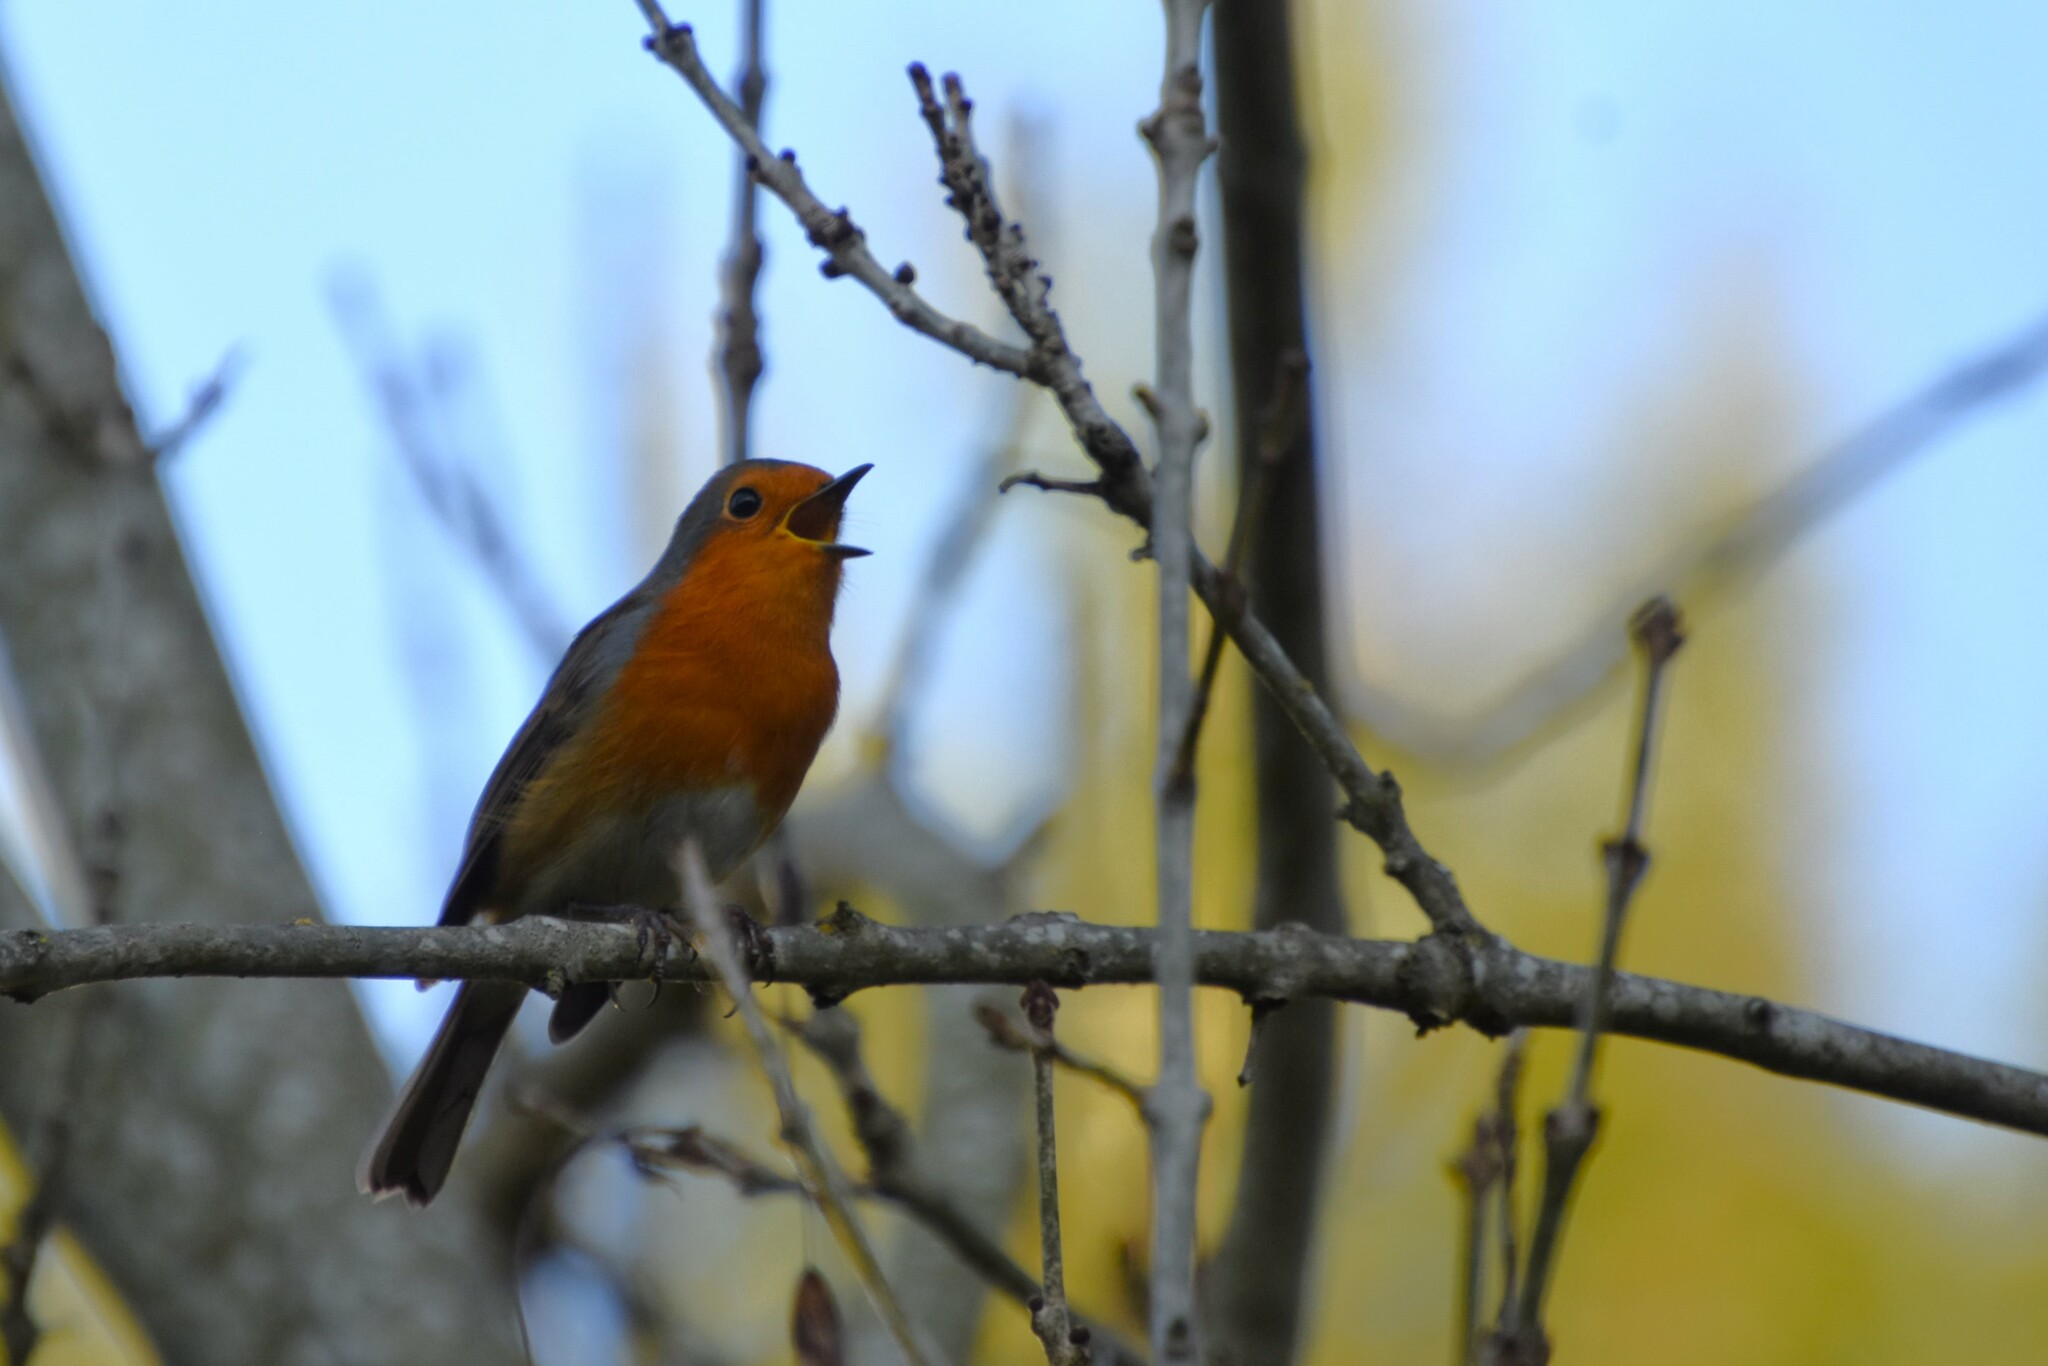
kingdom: Animalia
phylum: Chordata
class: Aves
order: Passeriformes
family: Muscicapidae
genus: Erithacus
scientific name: Erithacus rubecula
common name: European robin
